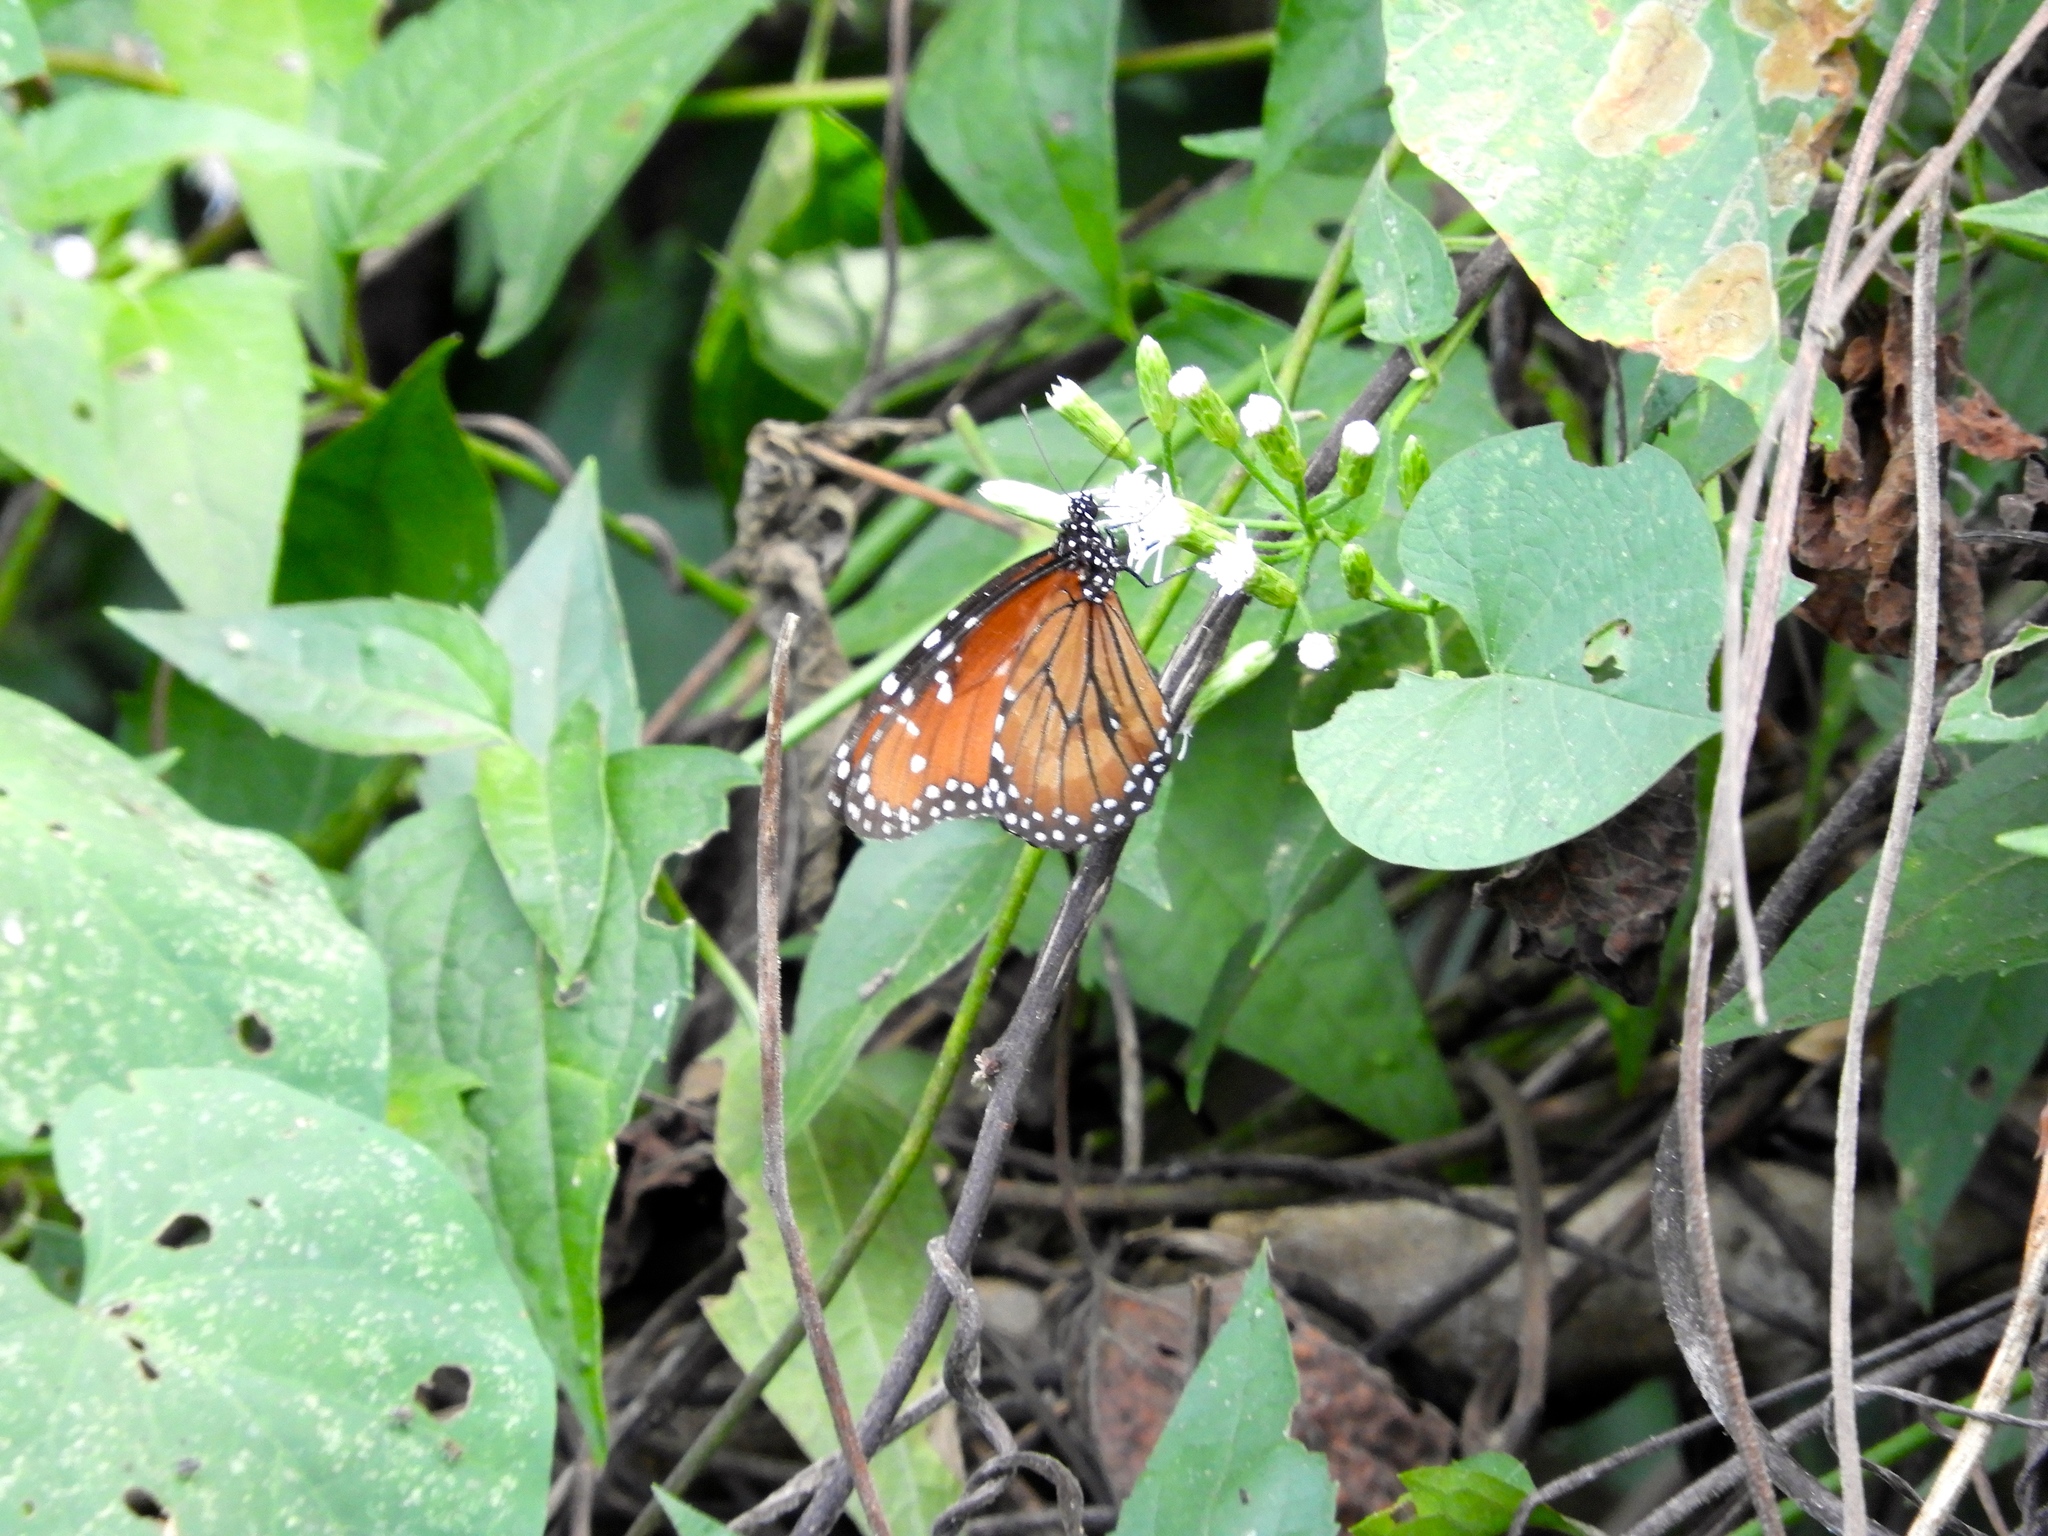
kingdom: Animalia
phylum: Arthropoda
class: Insecta
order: Lepidoptera
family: Nymphalidae
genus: Danaus
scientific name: Danaus eresimus
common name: Soldier
